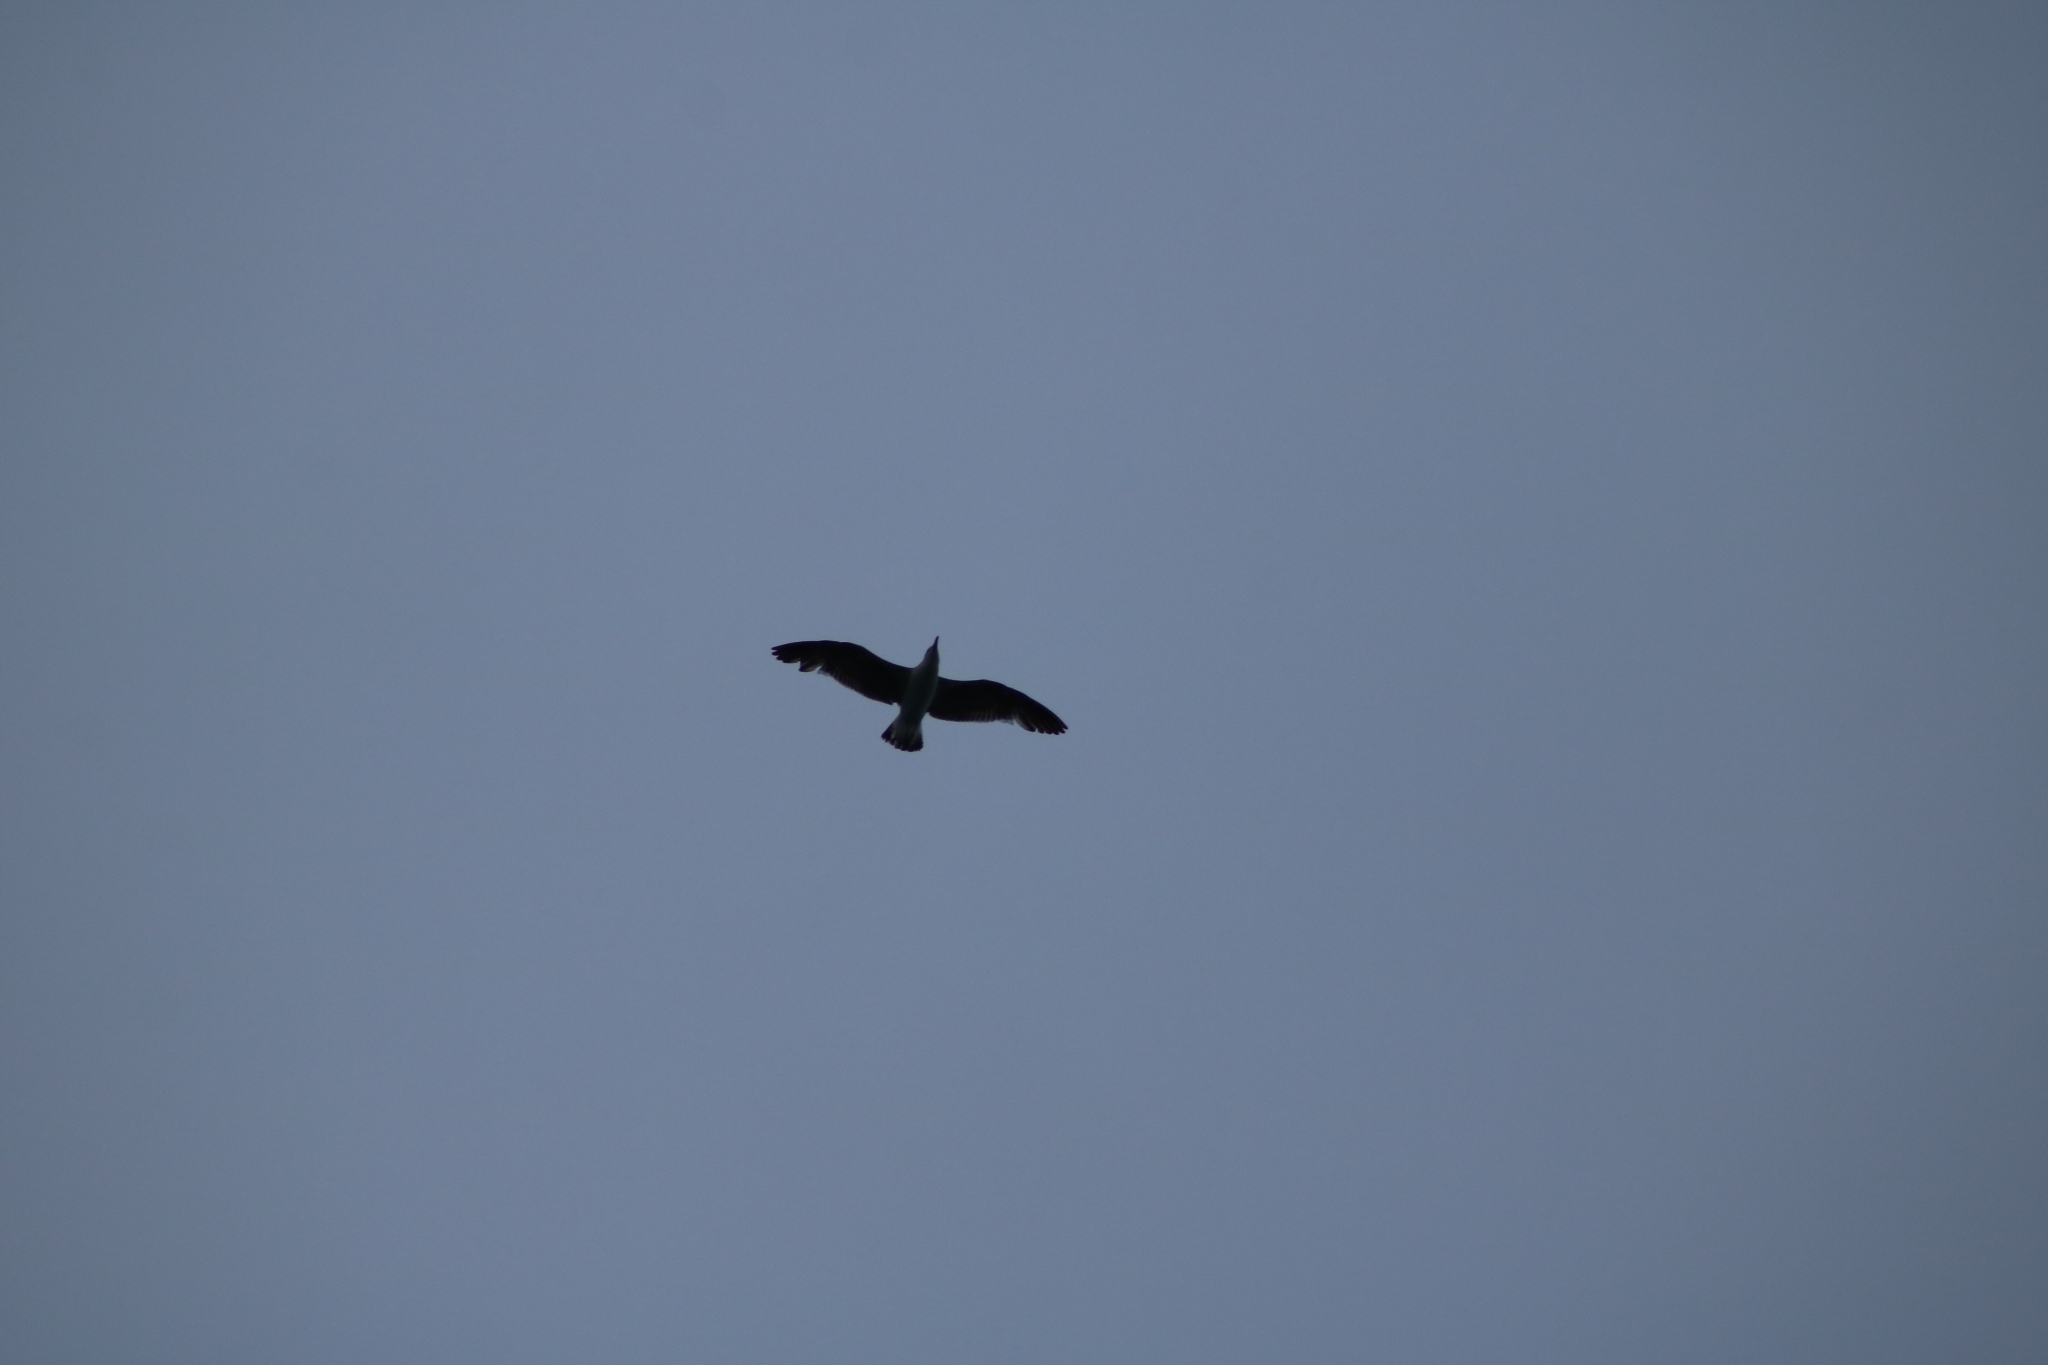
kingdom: Animalia
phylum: Chordata
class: Aves
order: Charadriiformes
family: Laridae
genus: Larus
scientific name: Larus dominicanus
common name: Kelp gull
